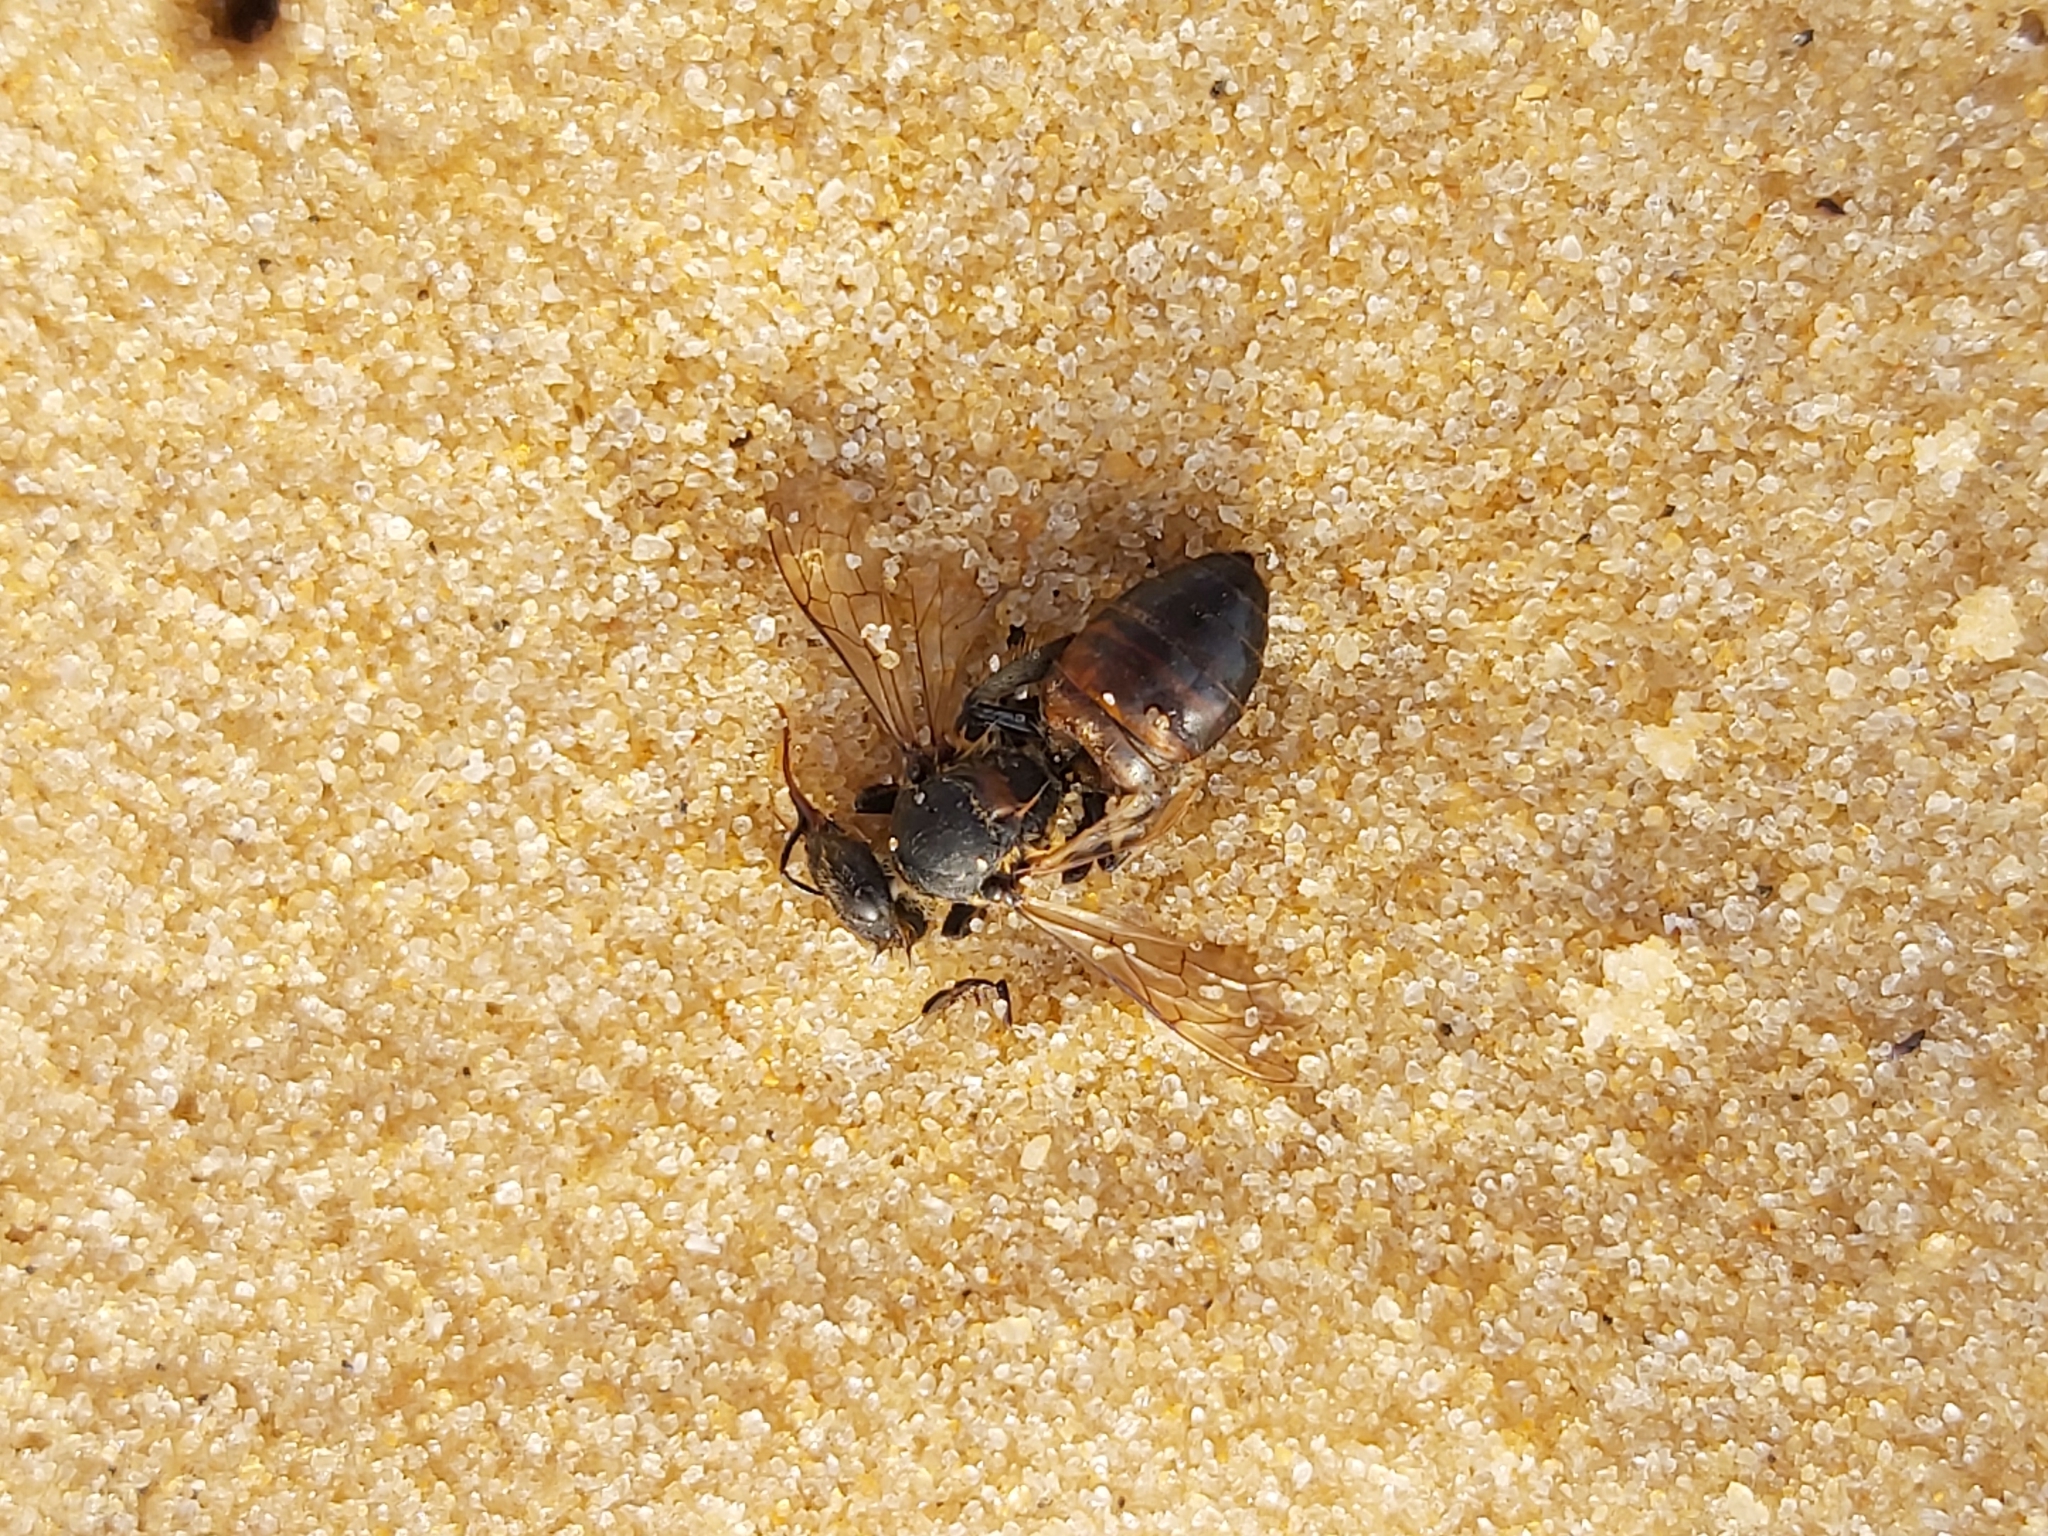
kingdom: Animalia
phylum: Arthropoda
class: Insecta
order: Hymenoptera
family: Apidae
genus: Apis
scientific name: Apis mellifera
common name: Honey bee
